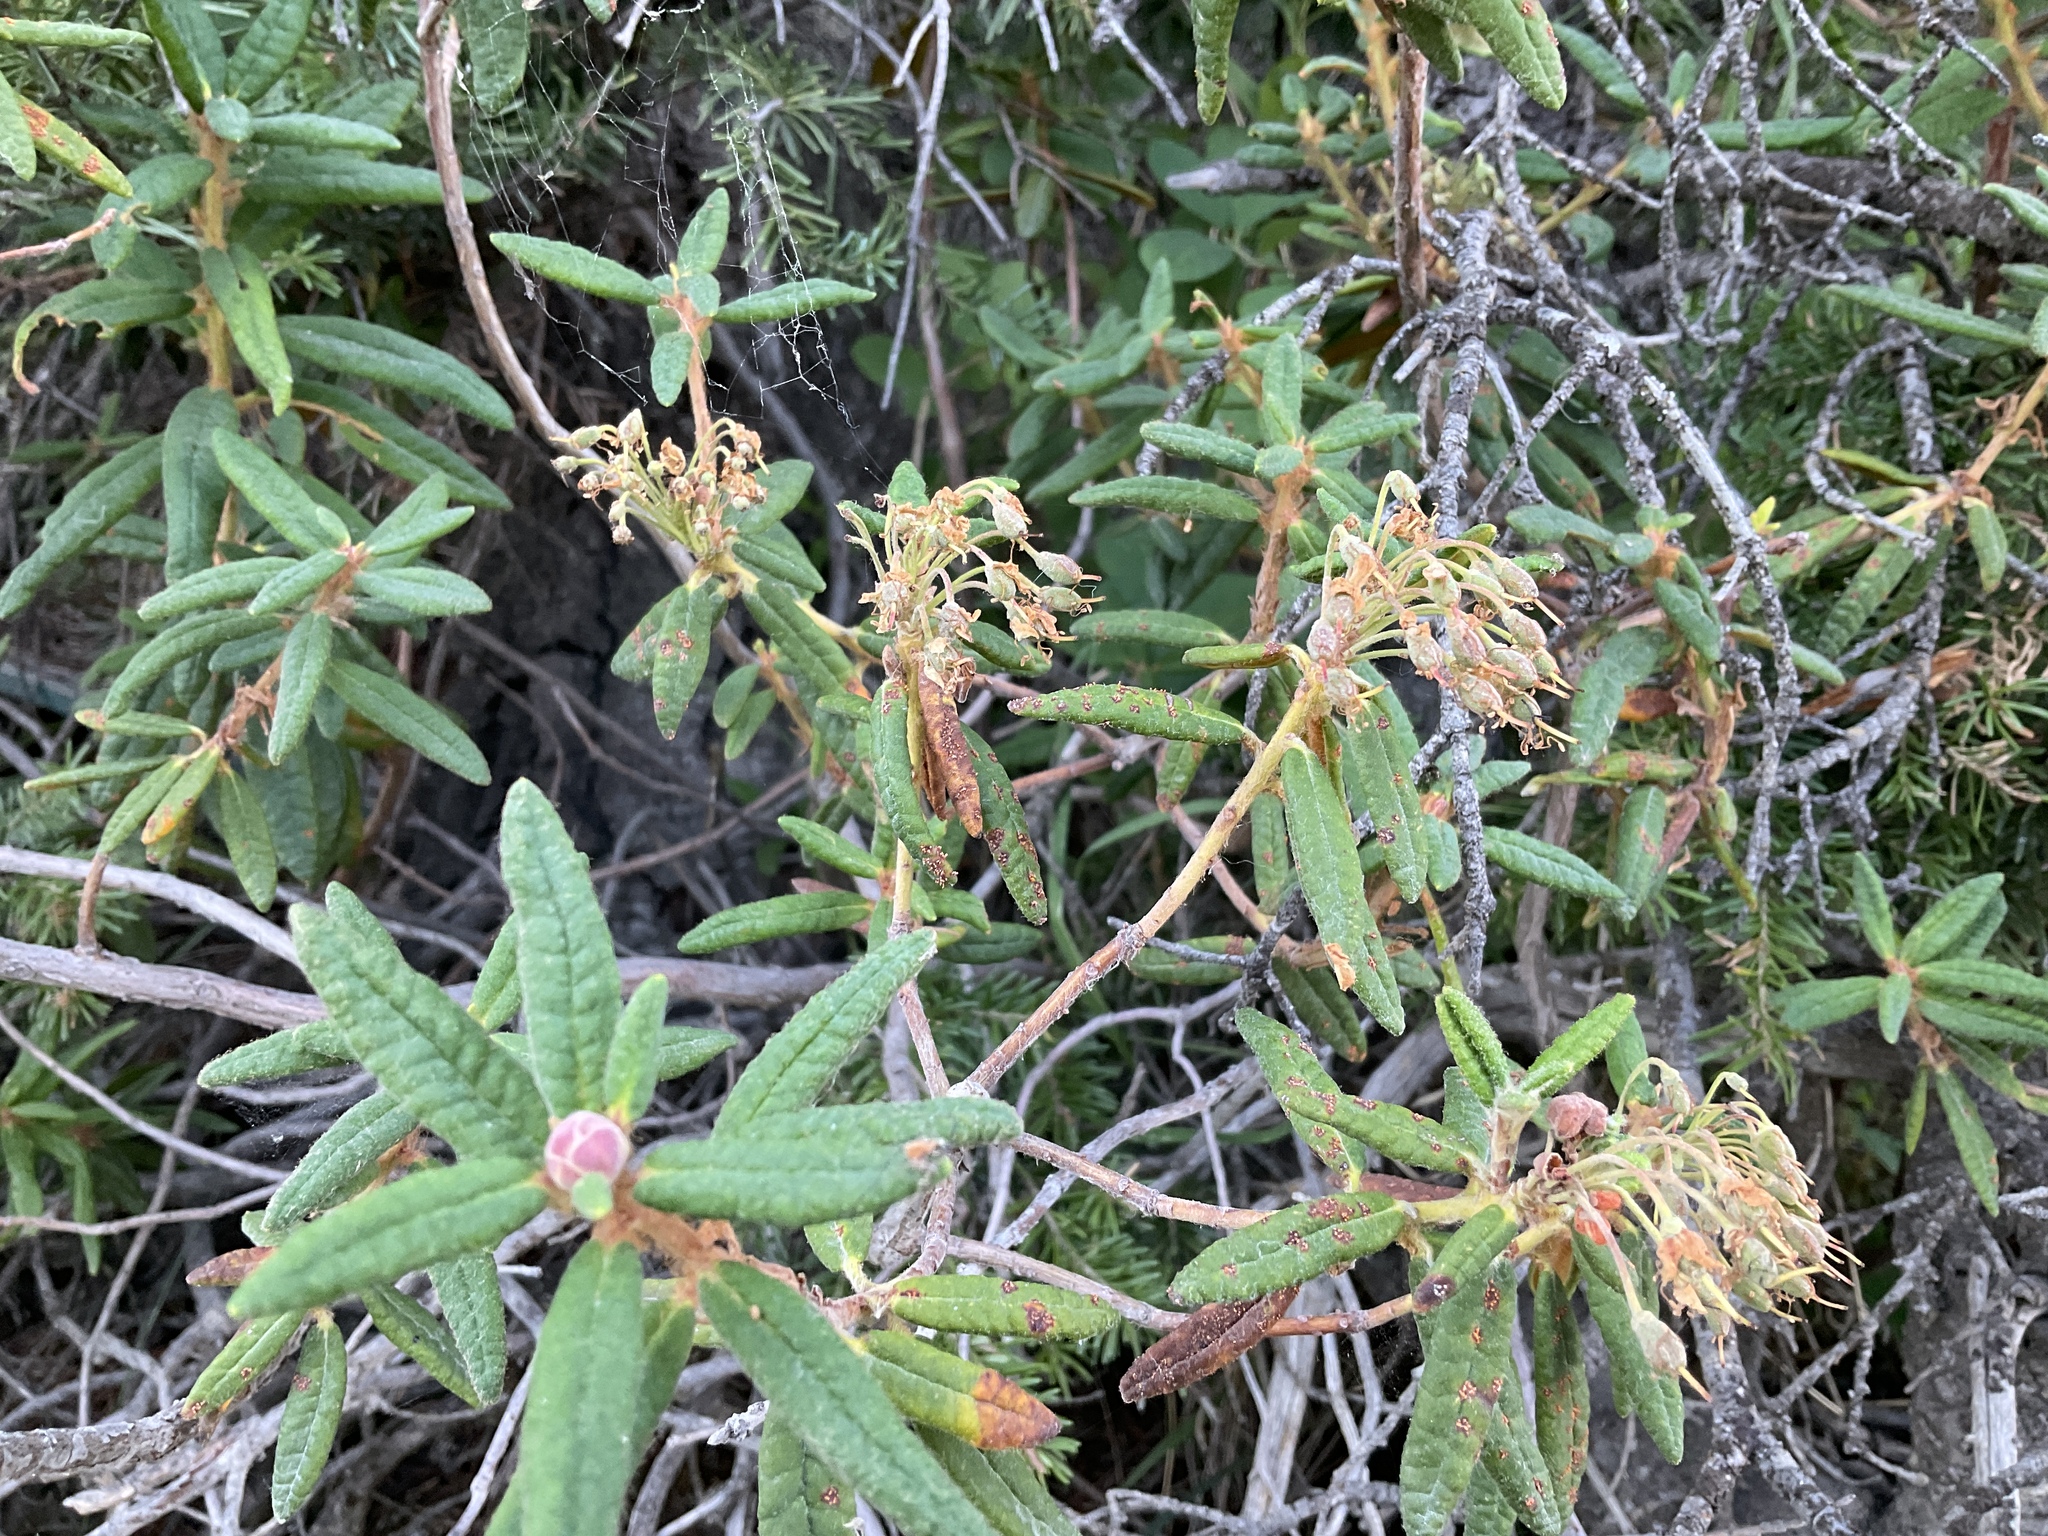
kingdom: Plantae
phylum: Tracheophyta
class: Magnoliopsida
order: Ericales
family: Ericaceae
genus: Rhododendron
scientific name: Rhododendron groenlandicum
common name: Bog labrador tea
